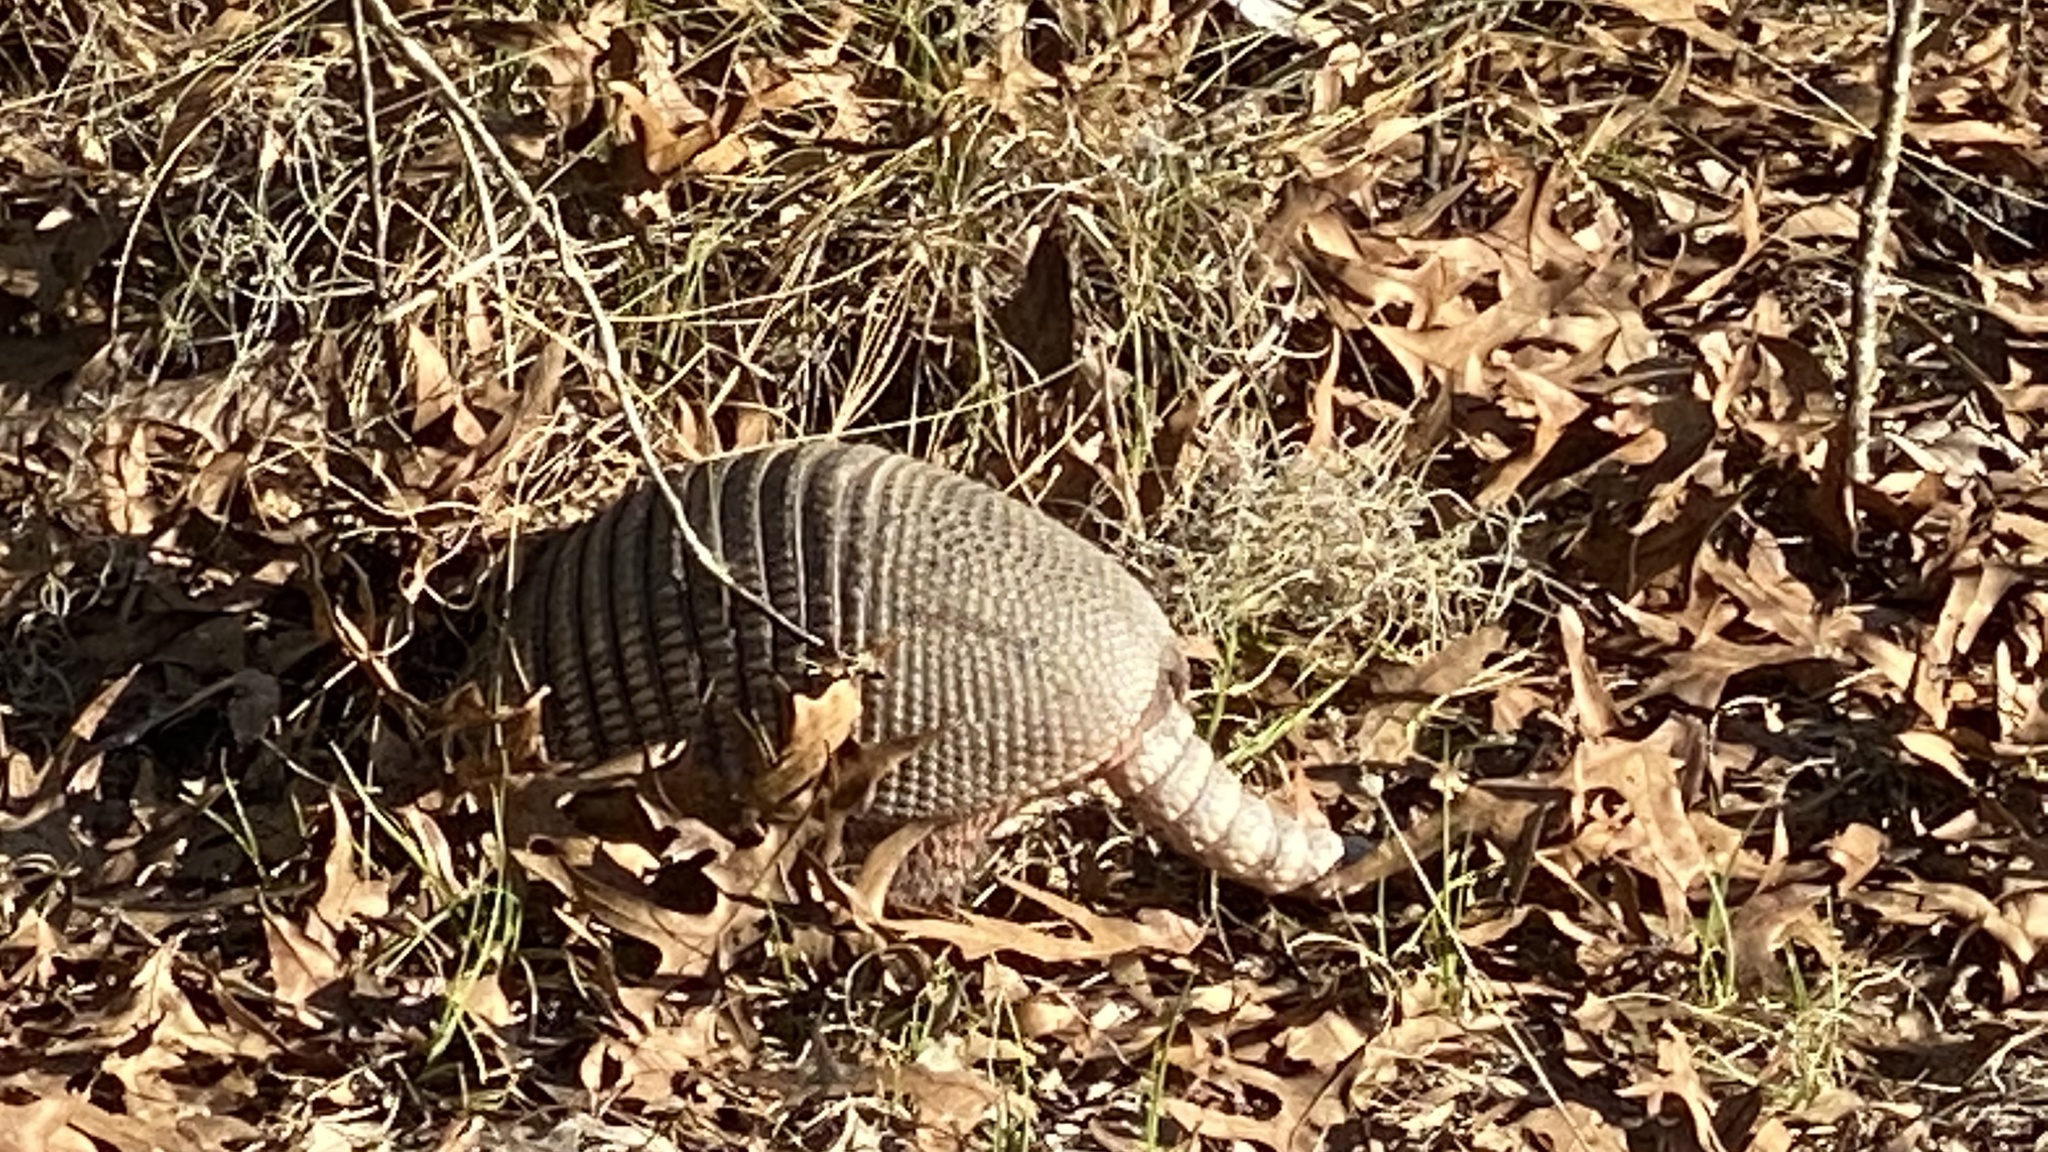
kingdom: Animalia
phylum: Chordata
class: Mammalia
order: Cingulata
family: Dasypodidae
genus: Dasypus
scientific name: Dasypus novemcinctus
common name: Nine-banded armadillo
